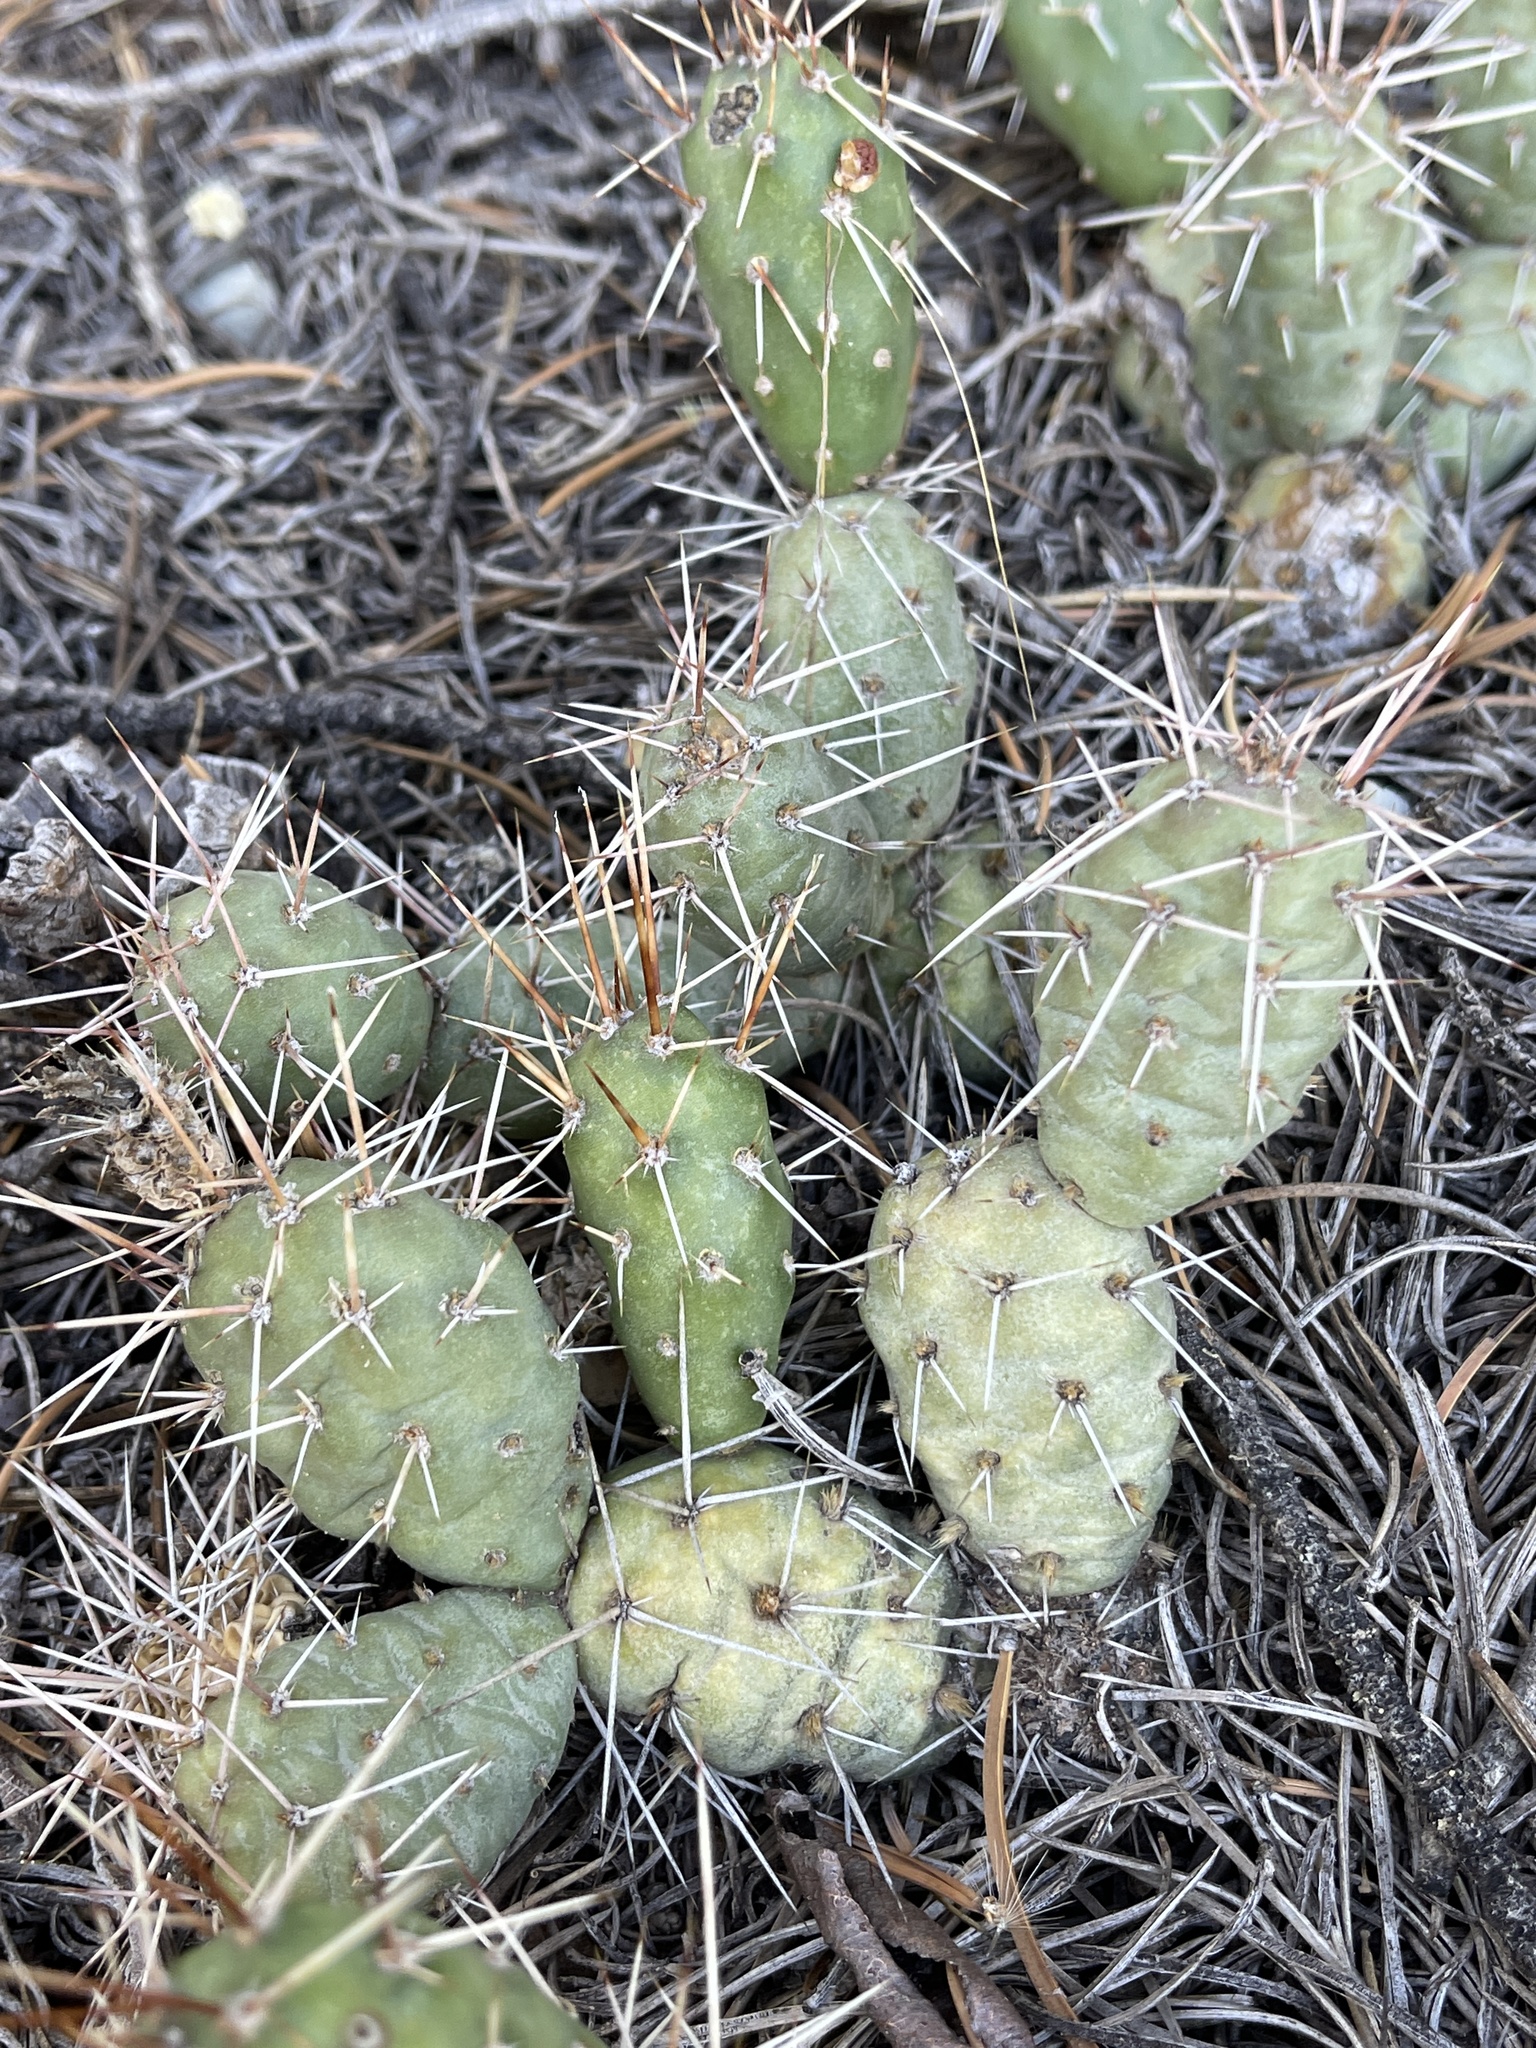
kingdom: Plantae
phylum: Tracheophyta
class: Magnoliopsida
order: Caryophyllales
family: Cactaceae
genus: Opuntia
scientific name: Opuntia fragilis
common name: Brittle cactus
